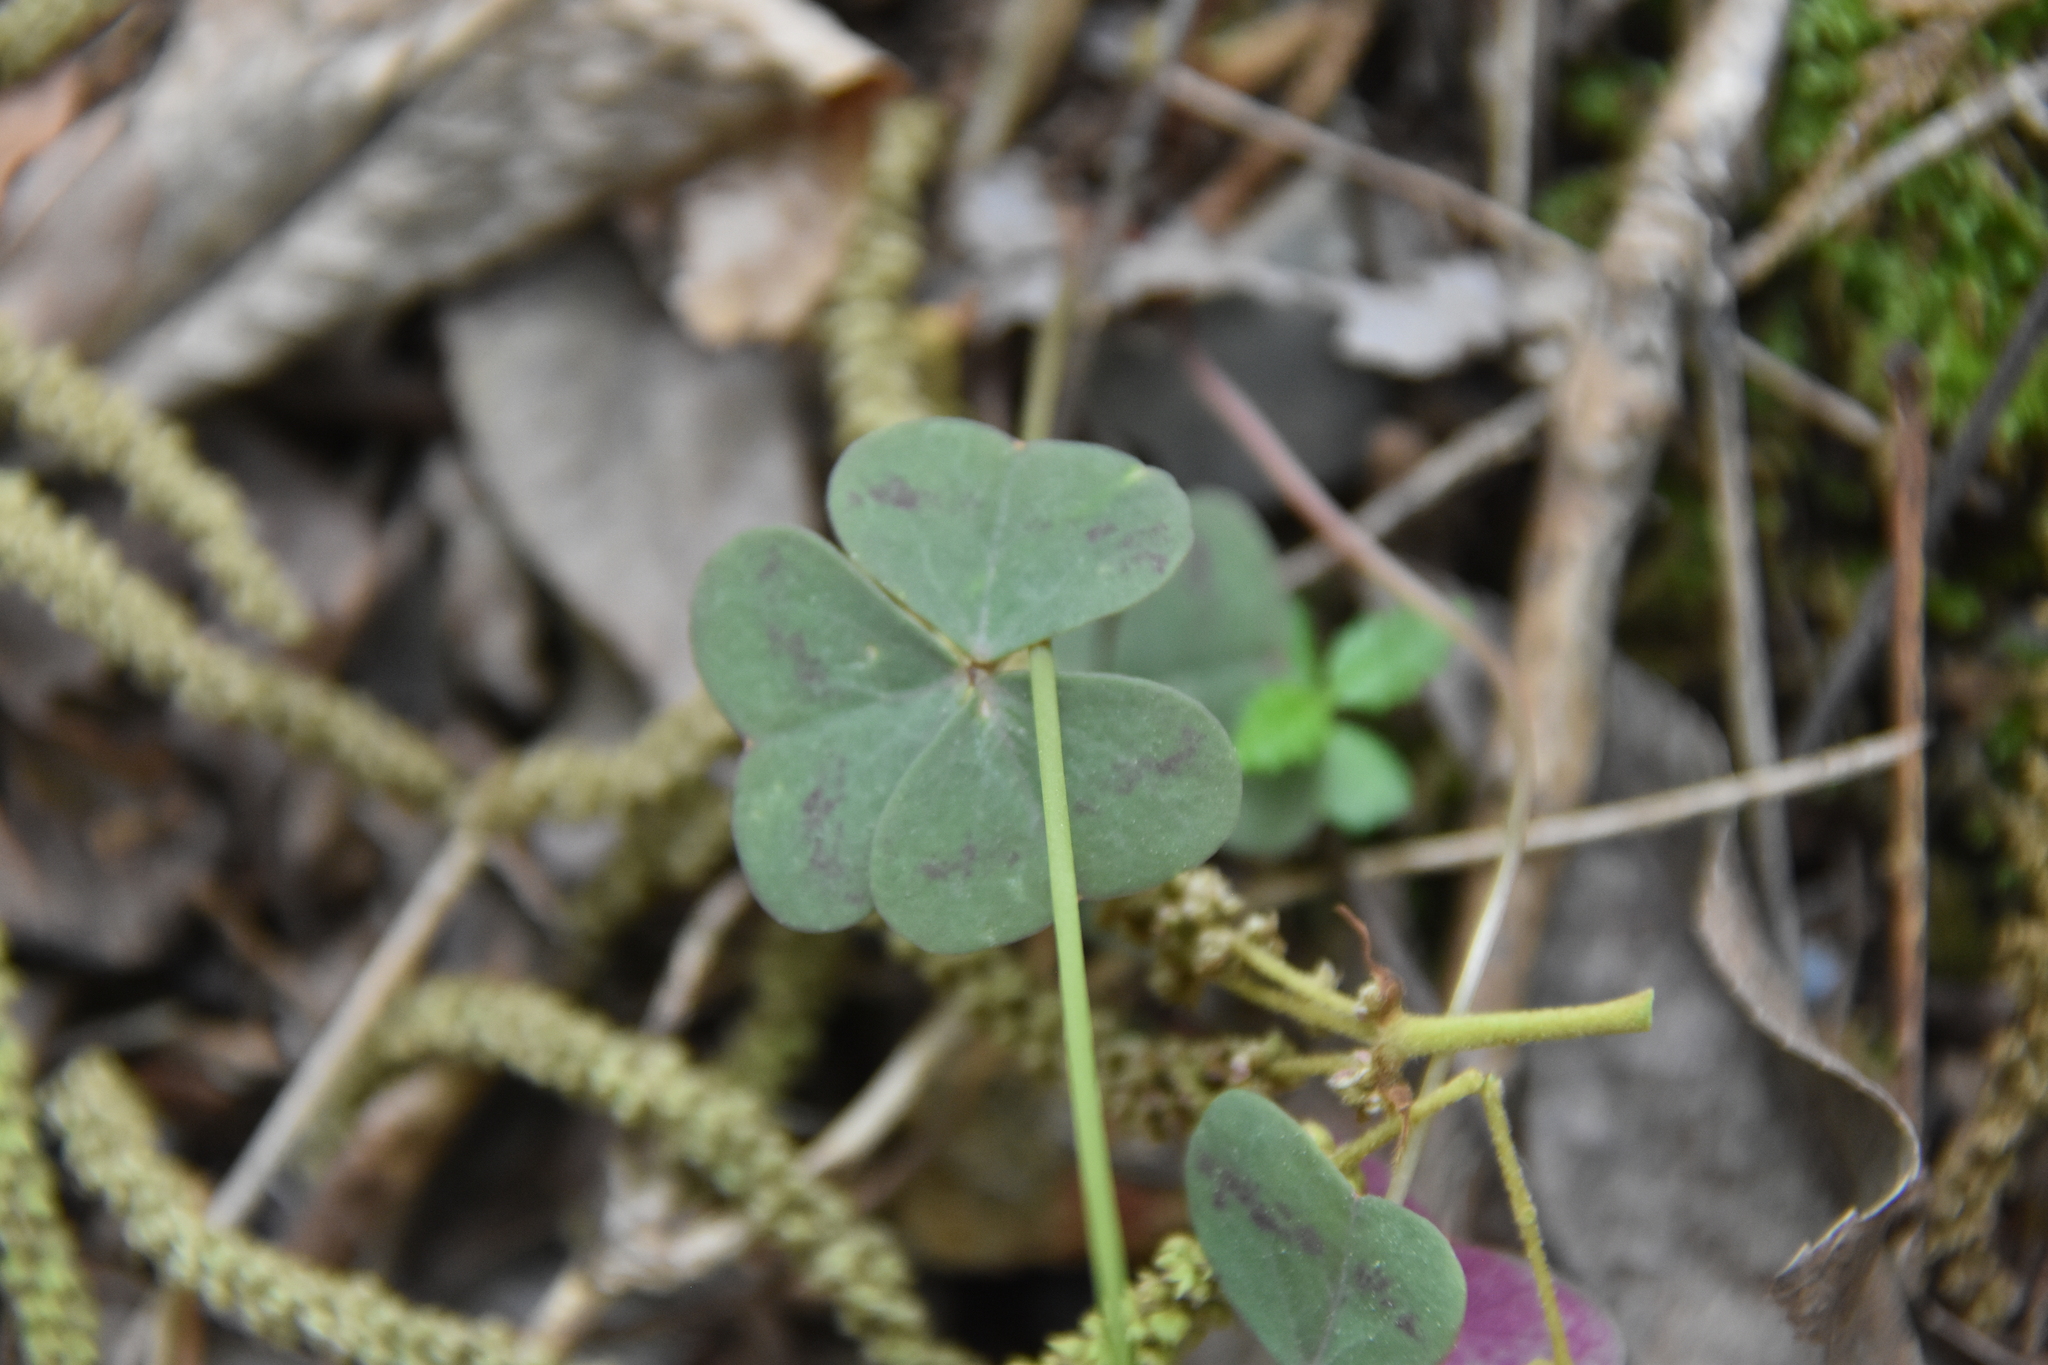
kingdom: Plantae
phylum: Tracheophyta
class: Magnoliopsida
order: Oxalidales
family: Oxalidaceae
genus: Oxalis
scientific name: Oxalis violacea
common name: Violet wood-sorrel
